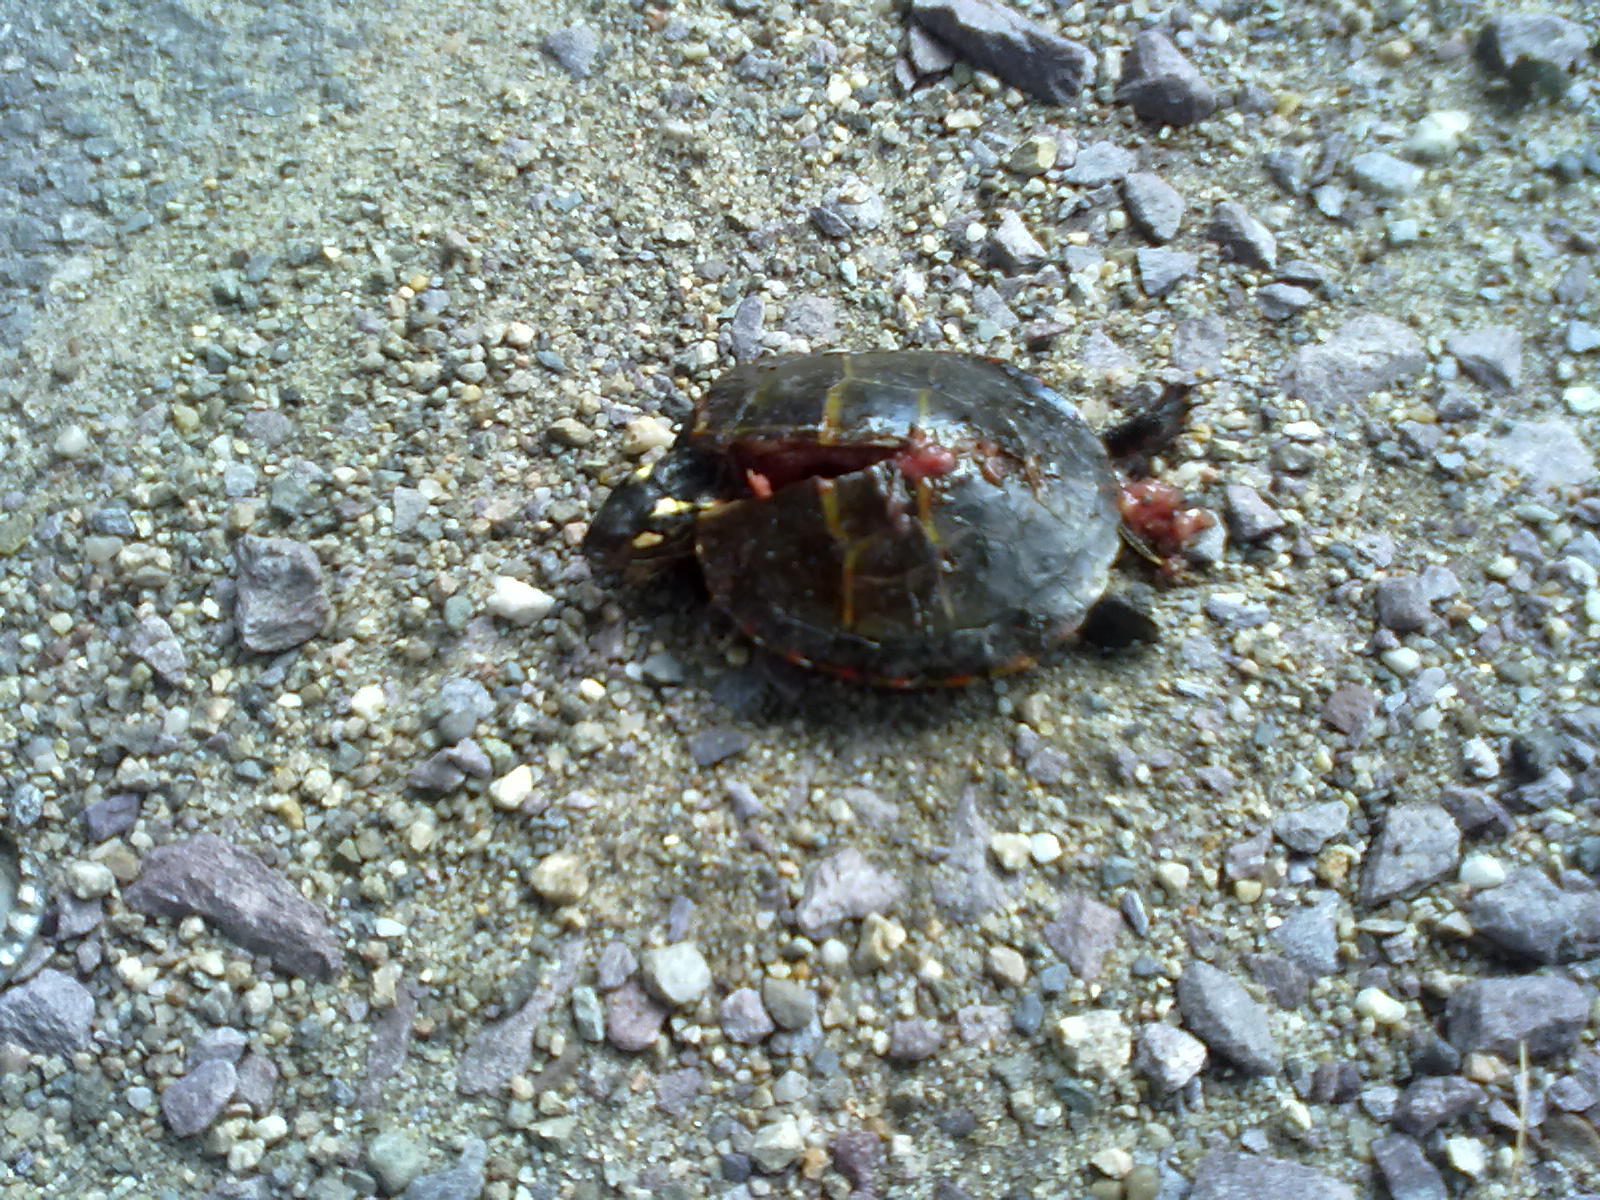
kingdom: Animalia
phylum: Chordata
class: Testudines
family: Emydidae
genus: Chrysemys
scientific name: Chrysemys picta
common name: Painted turtle
